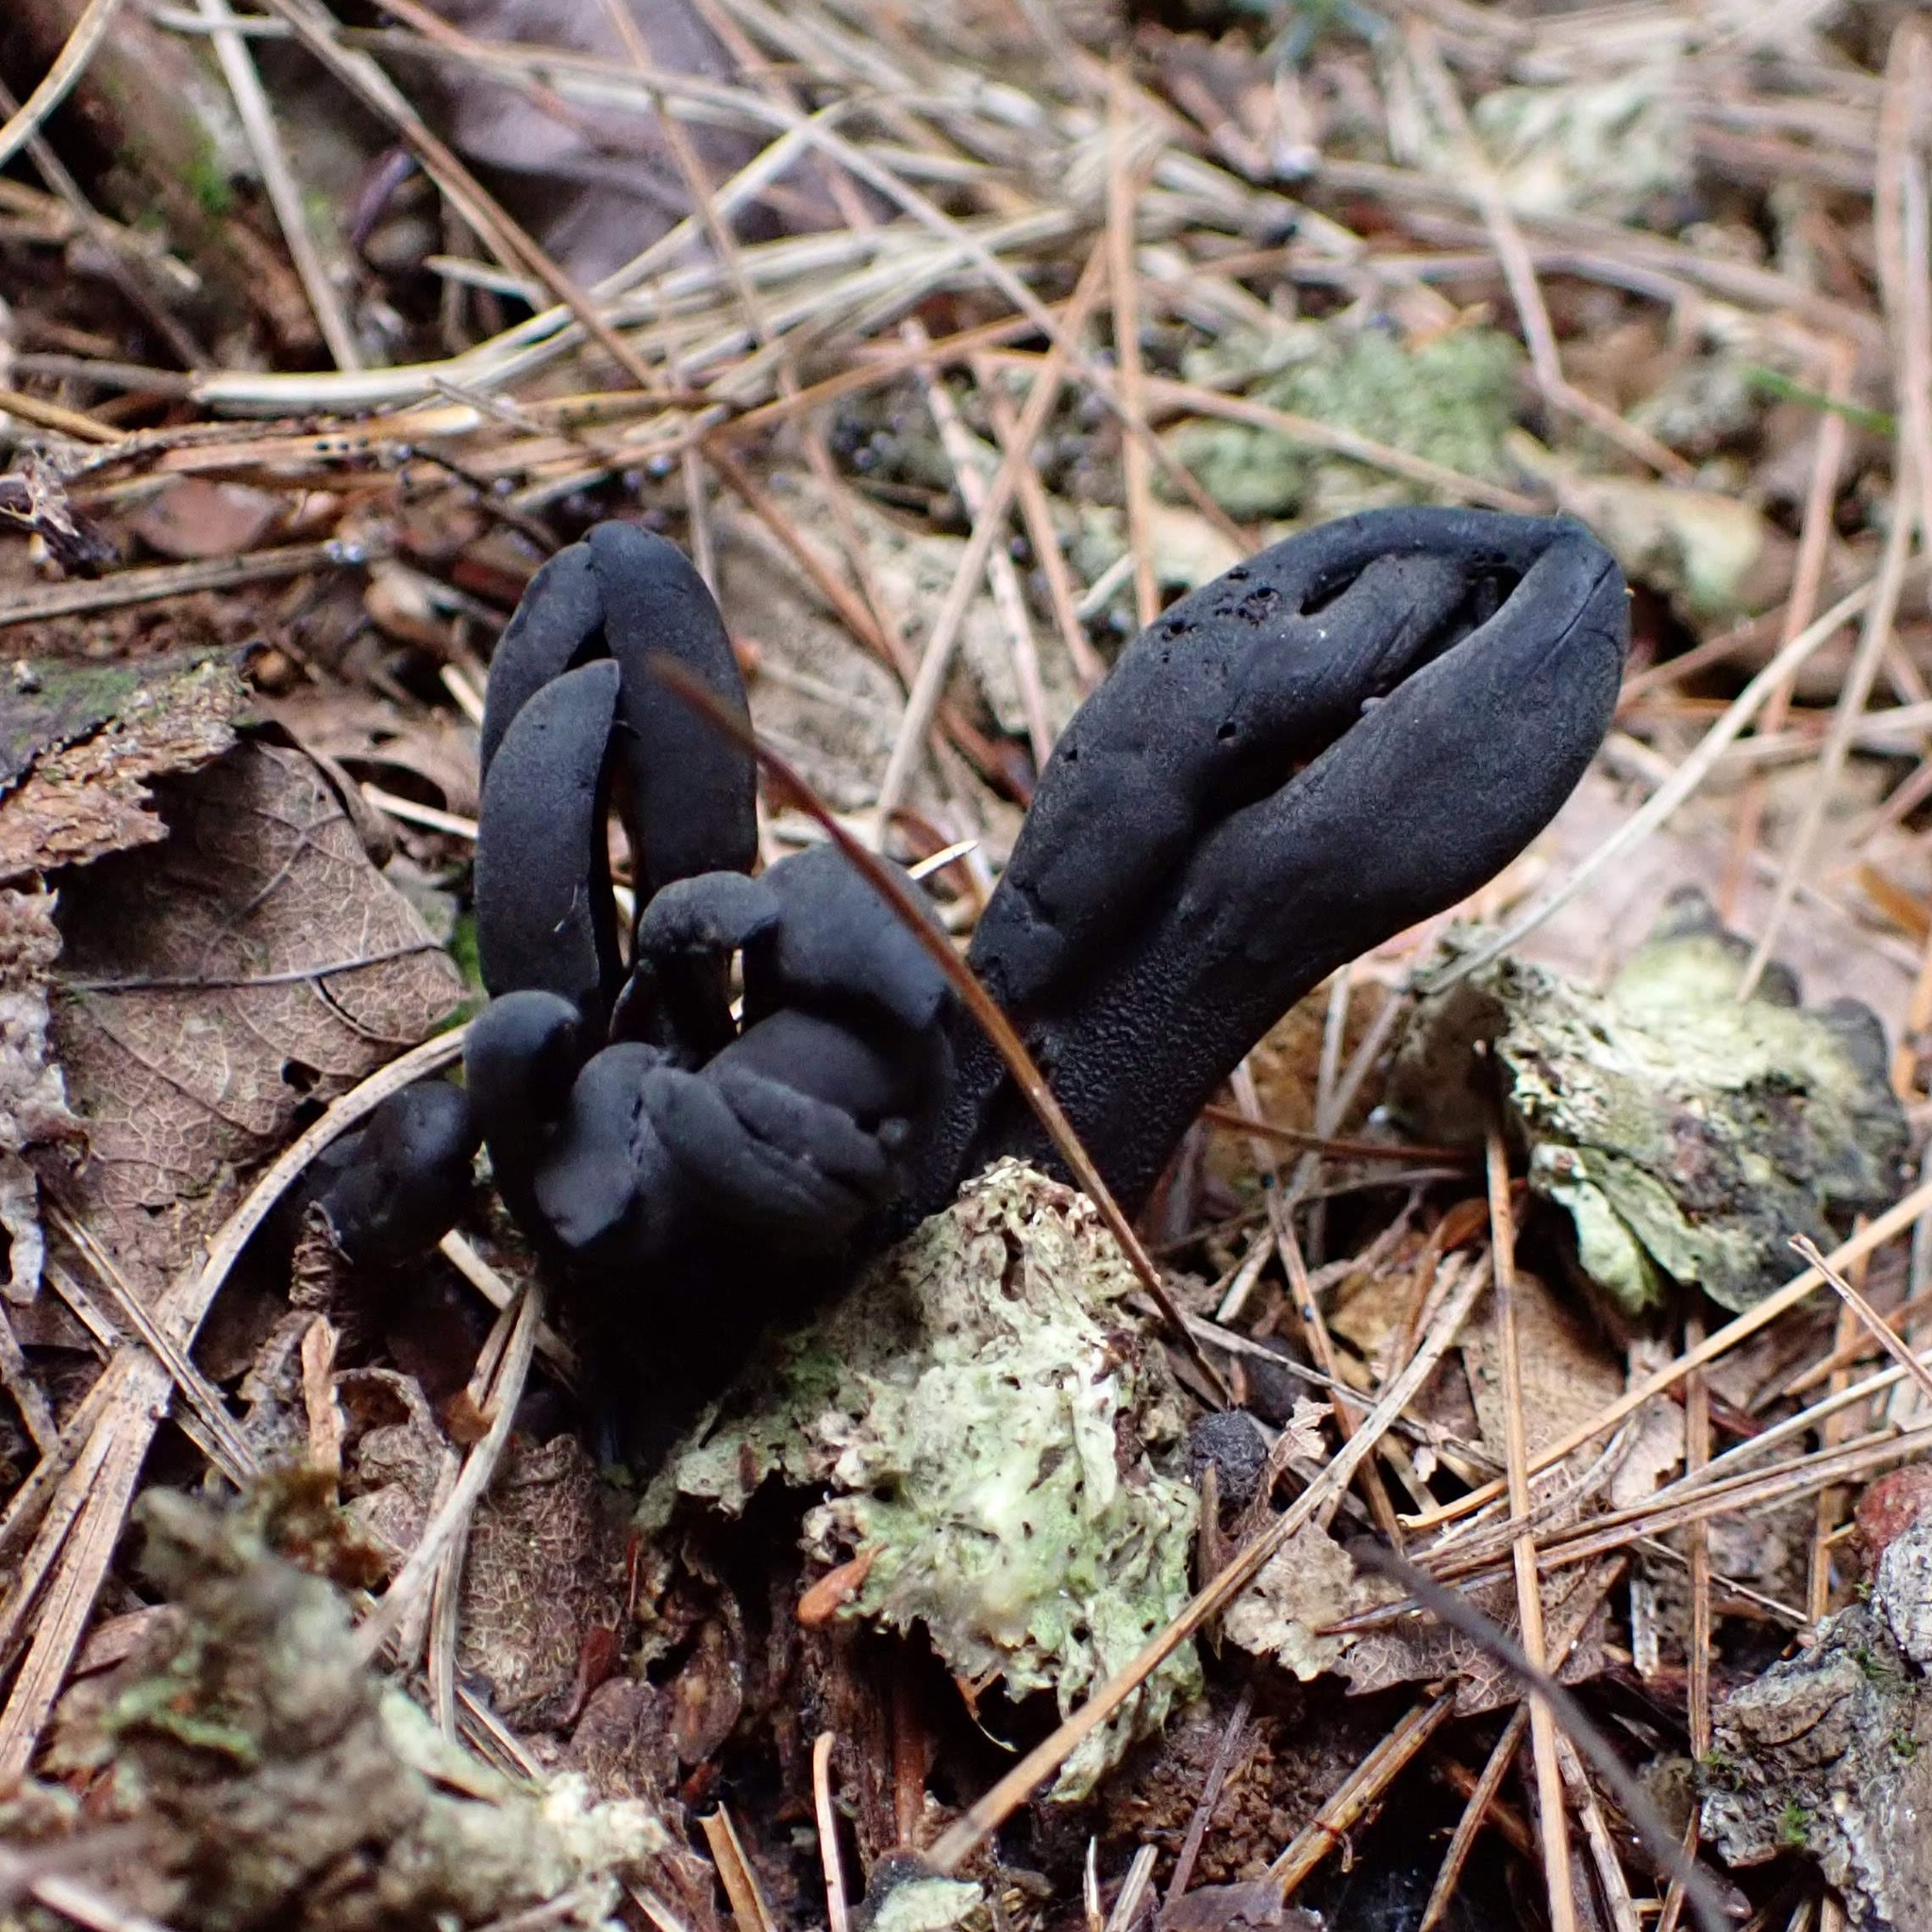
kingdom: Fungi
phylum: Ascomycota
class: Geoglossomycetes
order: Geoglossales
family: Geoglossaceae
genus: Geoglossum
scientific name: Geoglossum
